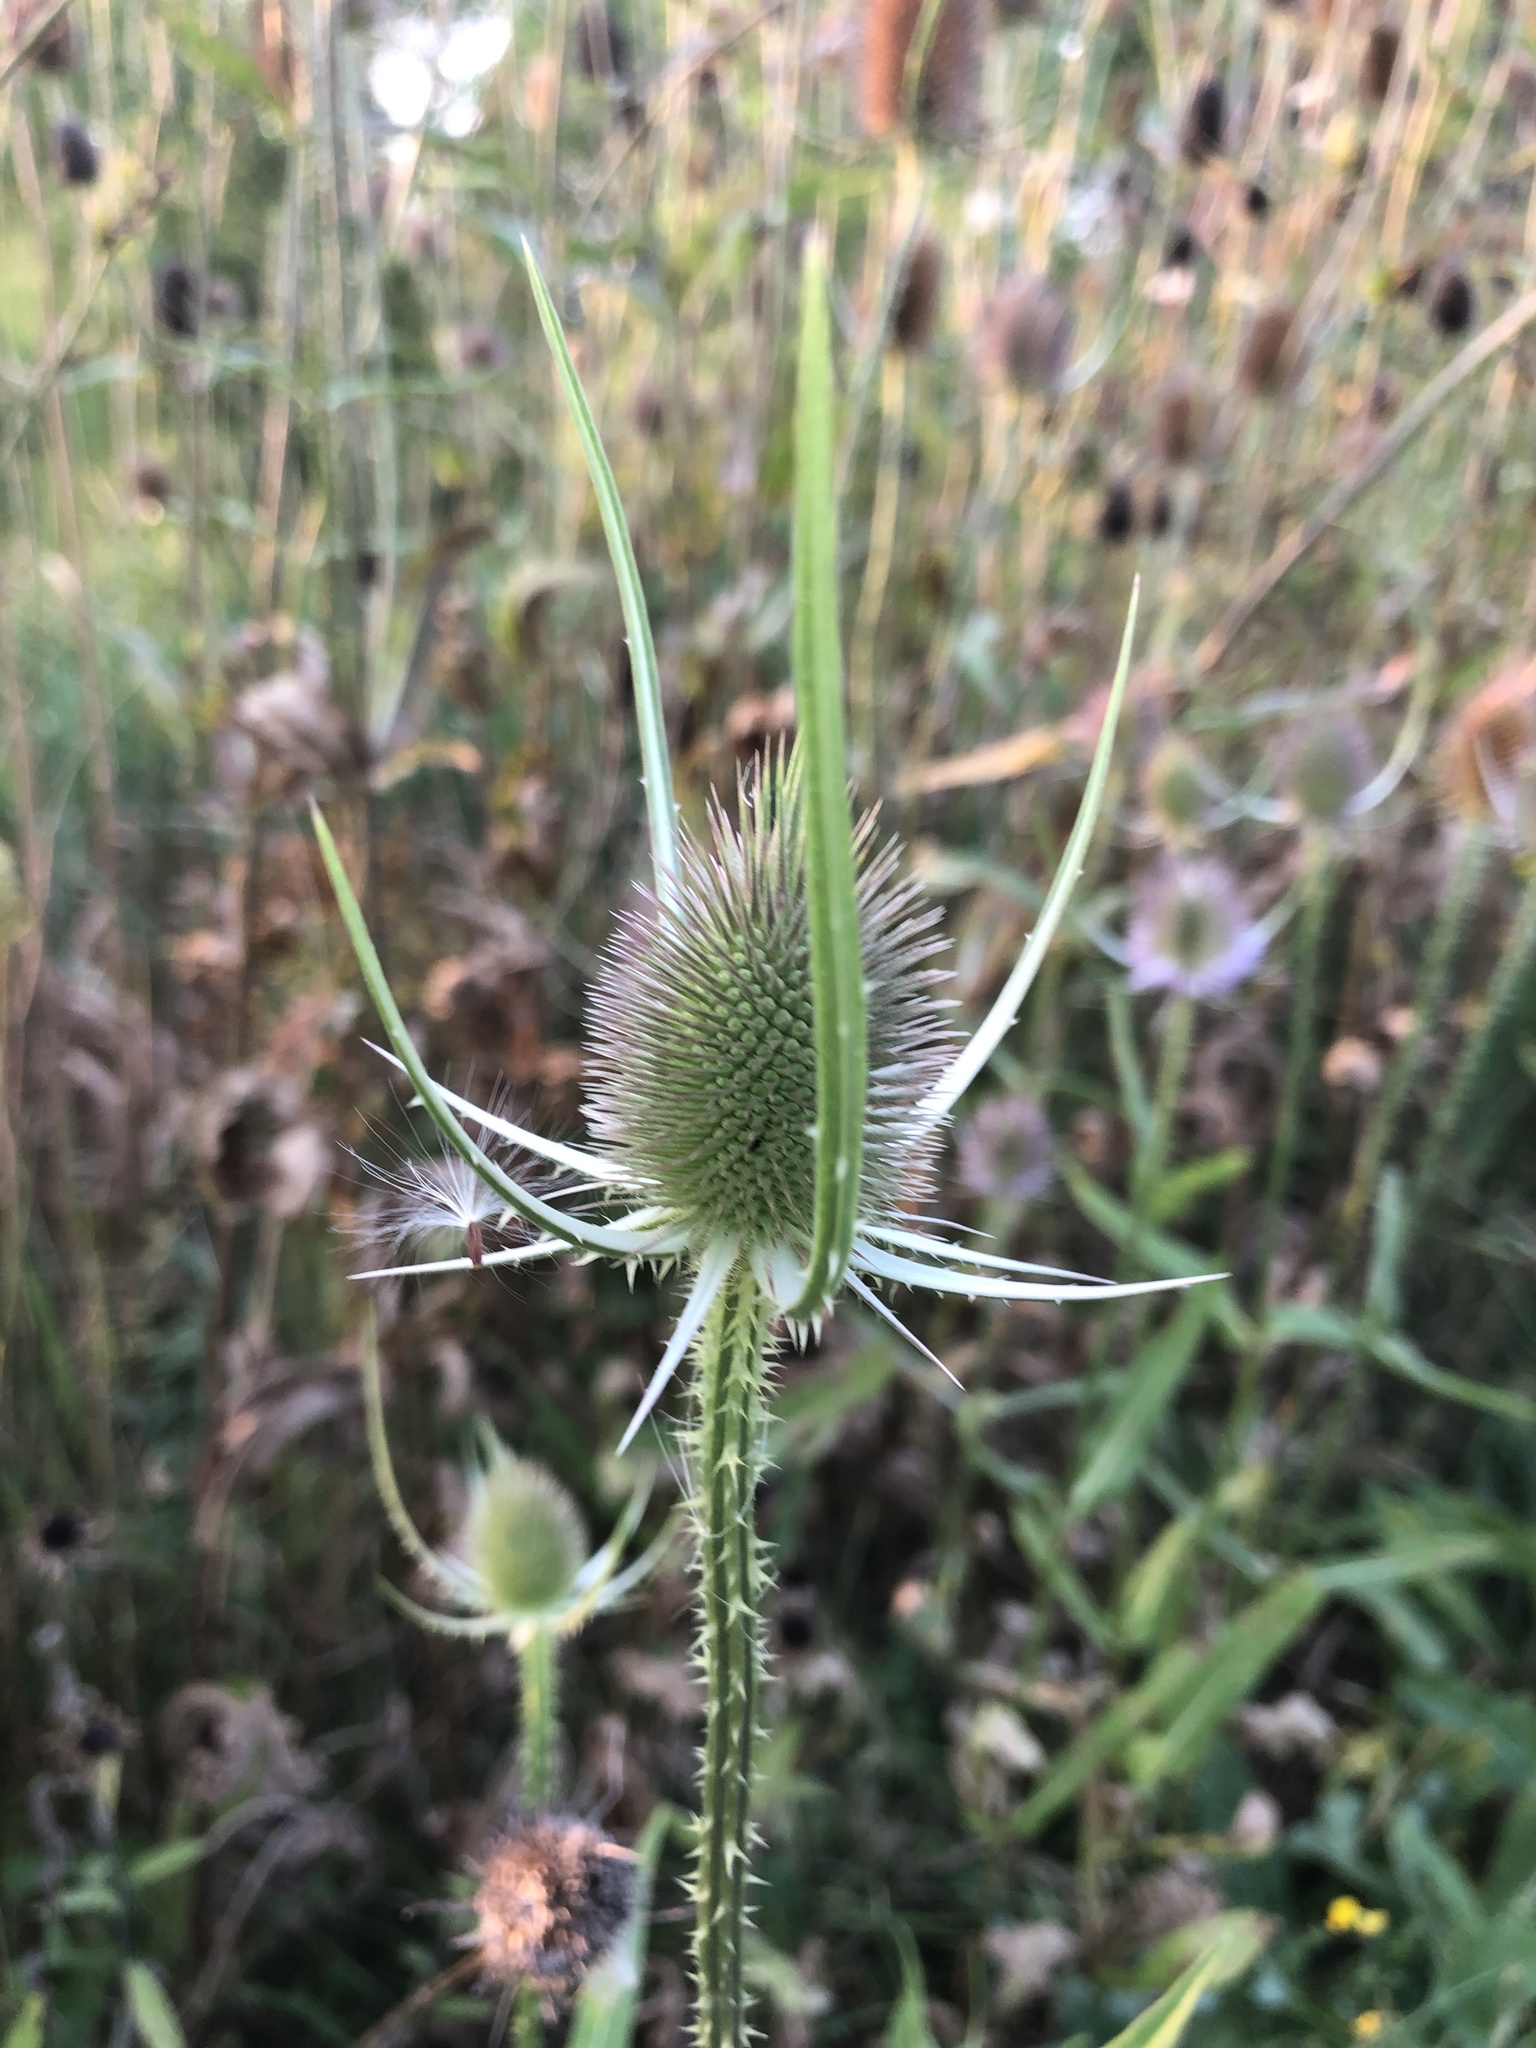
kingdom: Plantae
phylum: Tracheophyta
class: Magnoliopsida
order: Dipsacales
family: Caprifoliaceae
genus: Dipsacus
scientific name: Dipsacus fullonum
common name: Teasel
